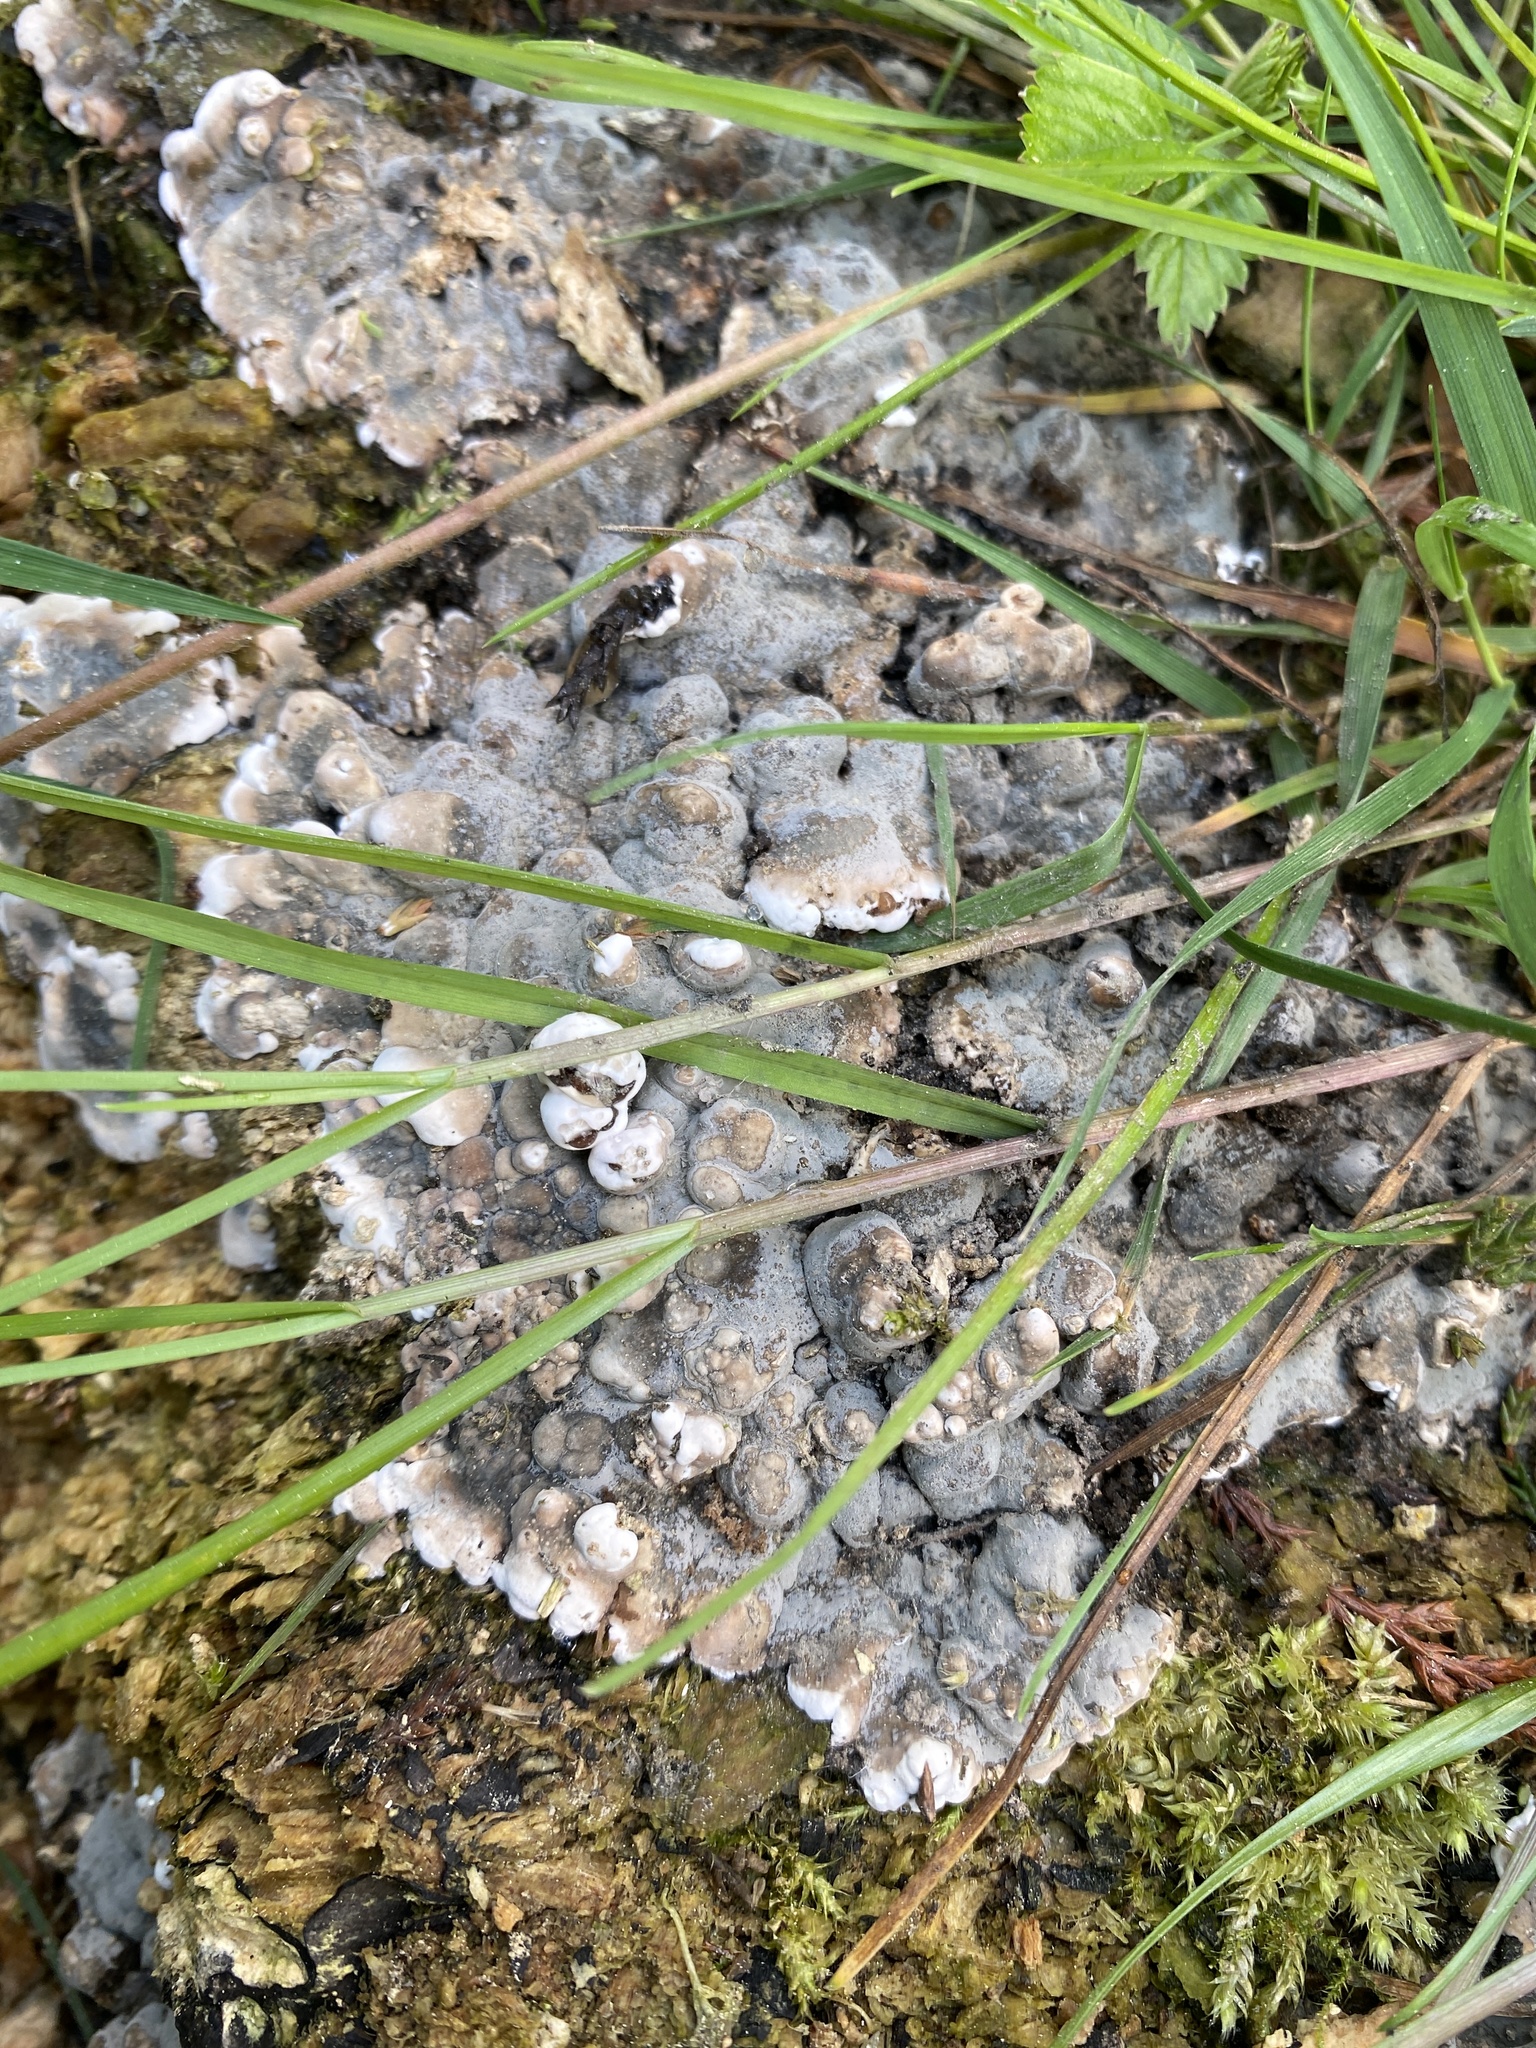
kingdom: Fungi
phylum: Ascomycota
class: Sordariomycetes
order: Xylariales
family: Xylariaceae
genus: Kretzschmaria
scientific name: Kretzschmaria deusta
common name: Brittle cinder
